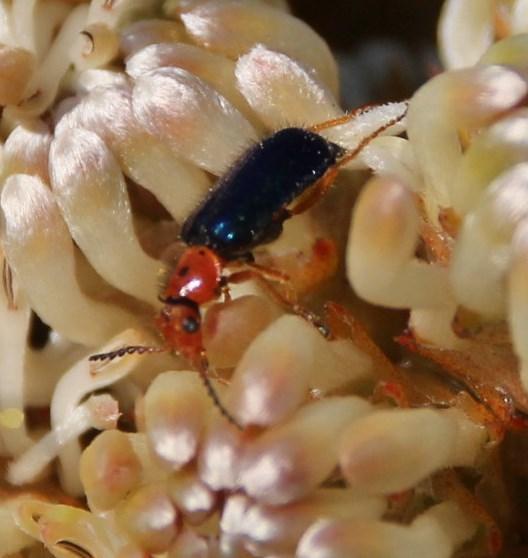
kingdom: Animalia
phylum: Arthropoda
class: Insecta
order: Coleoptera
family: Melyridae
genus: Ascolhedybius
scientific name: Ascolhedybius
